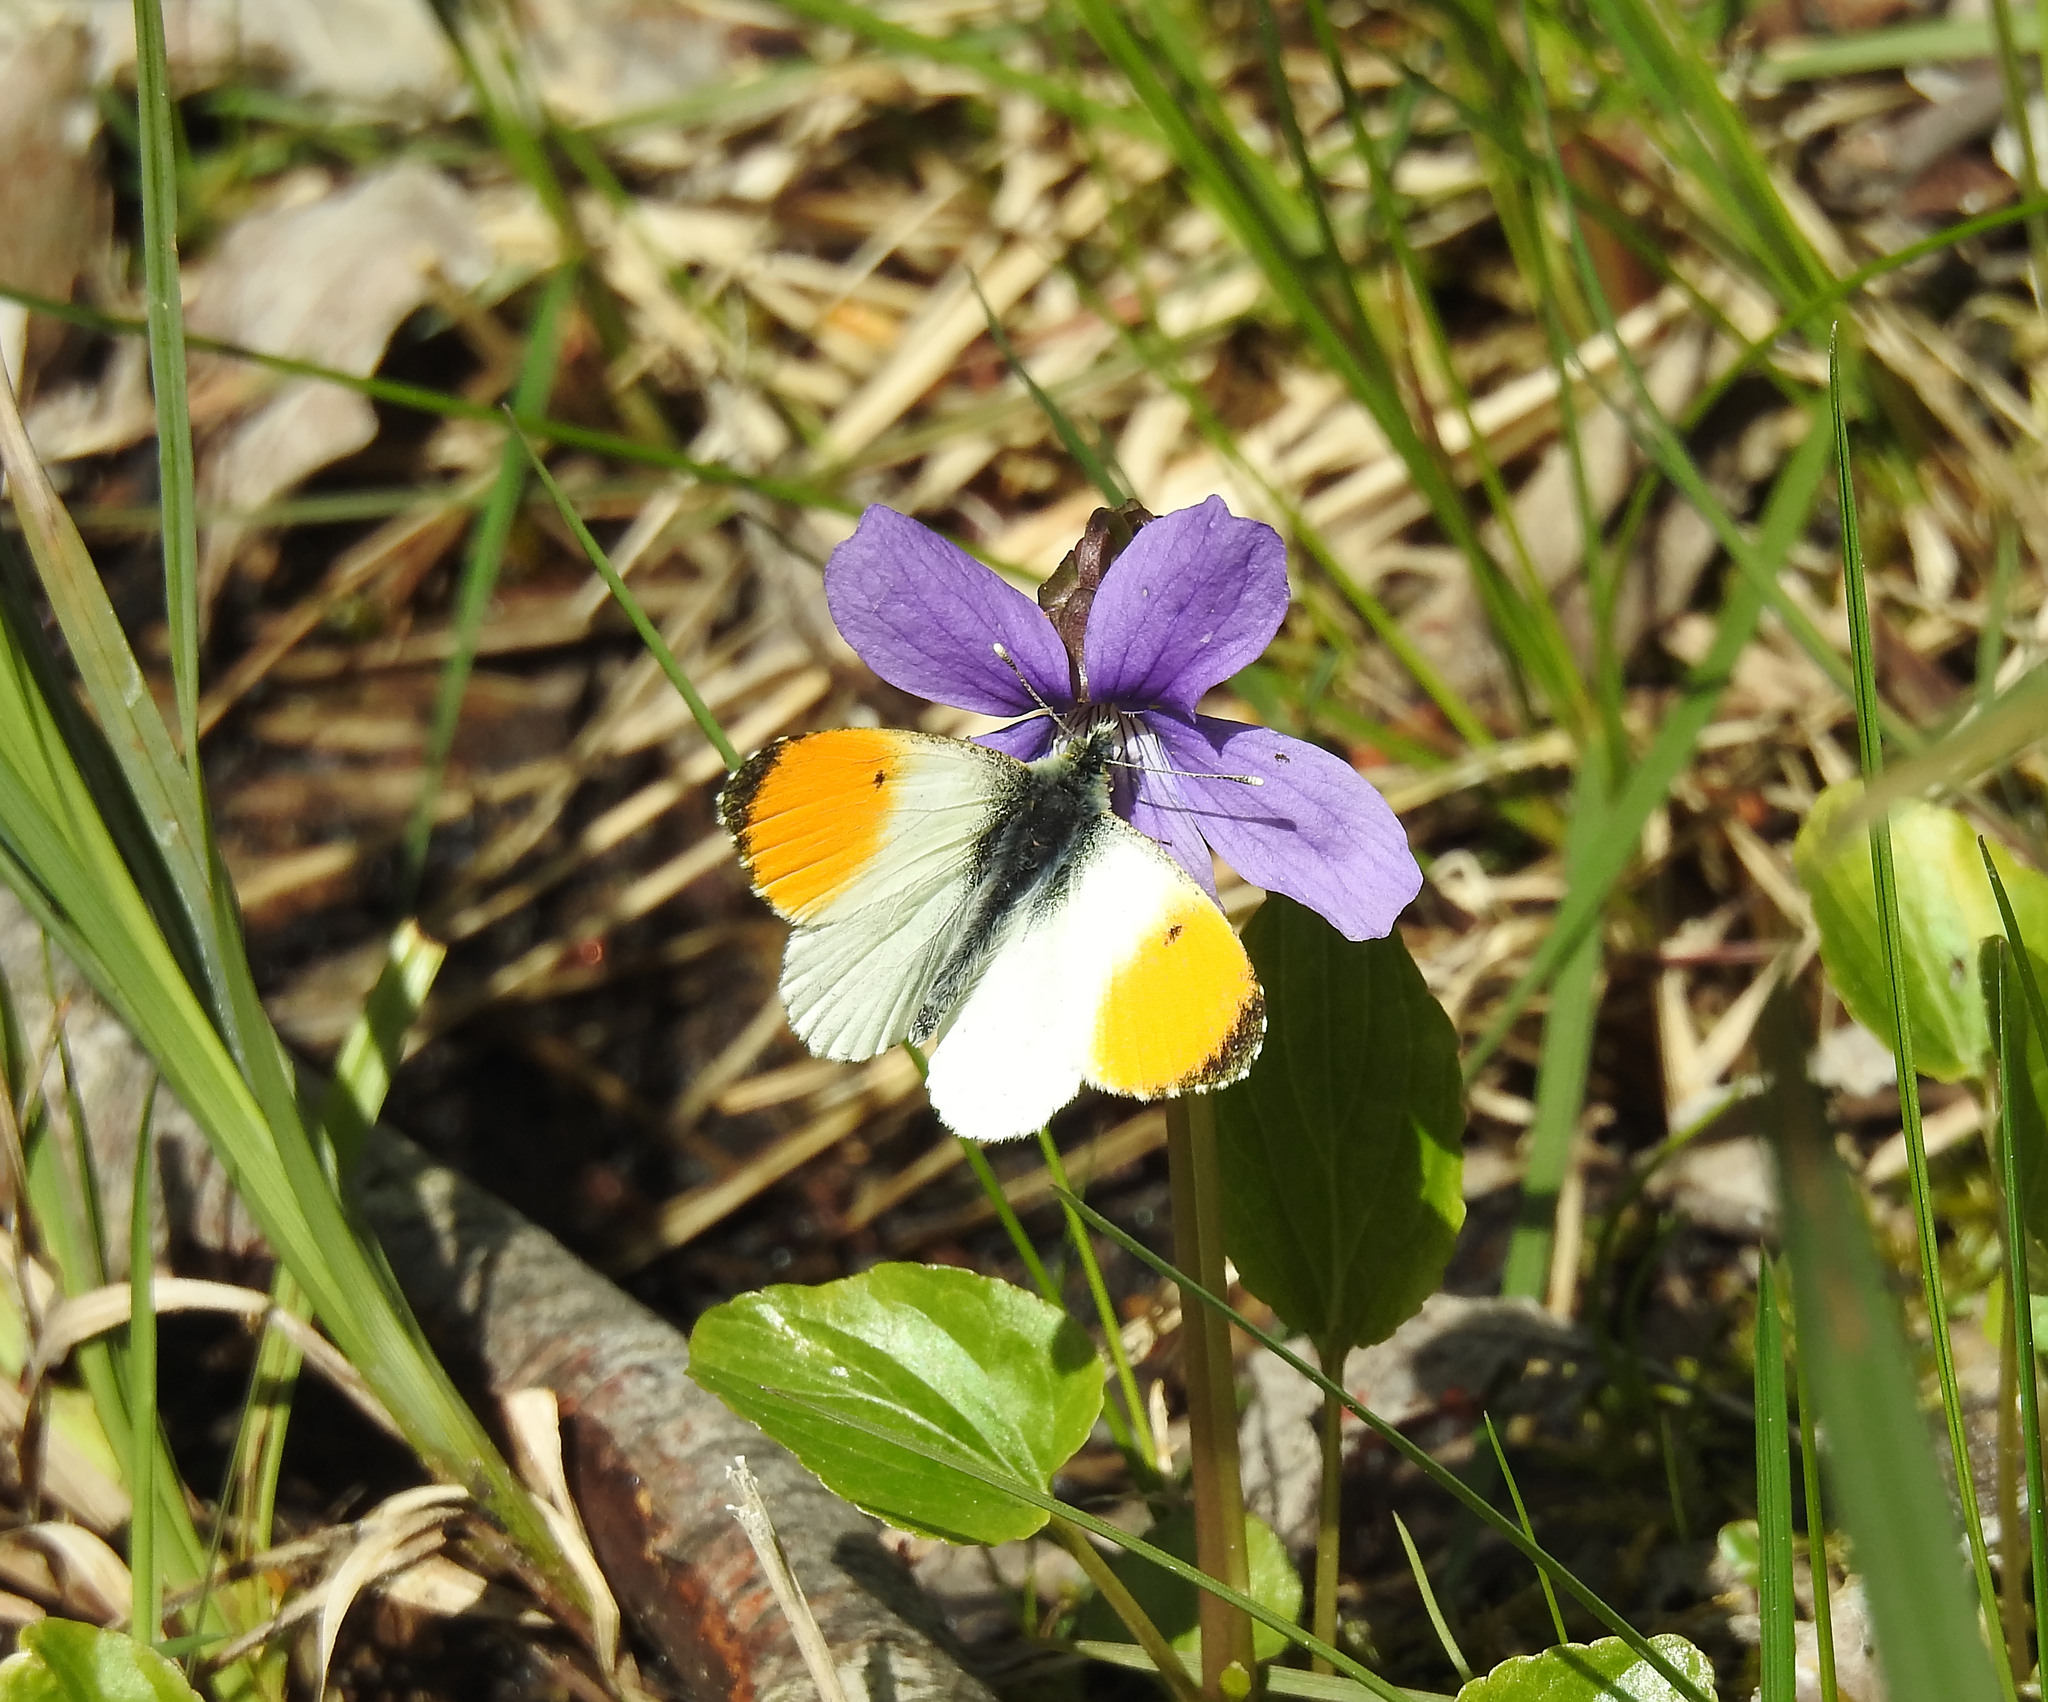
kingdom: Animalia
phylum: Arthropoda
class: Insecta
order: Lepidoptera
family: Pieridae
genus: Anthocharis
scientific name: Anthocharis cardamines
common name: Orange-tip
